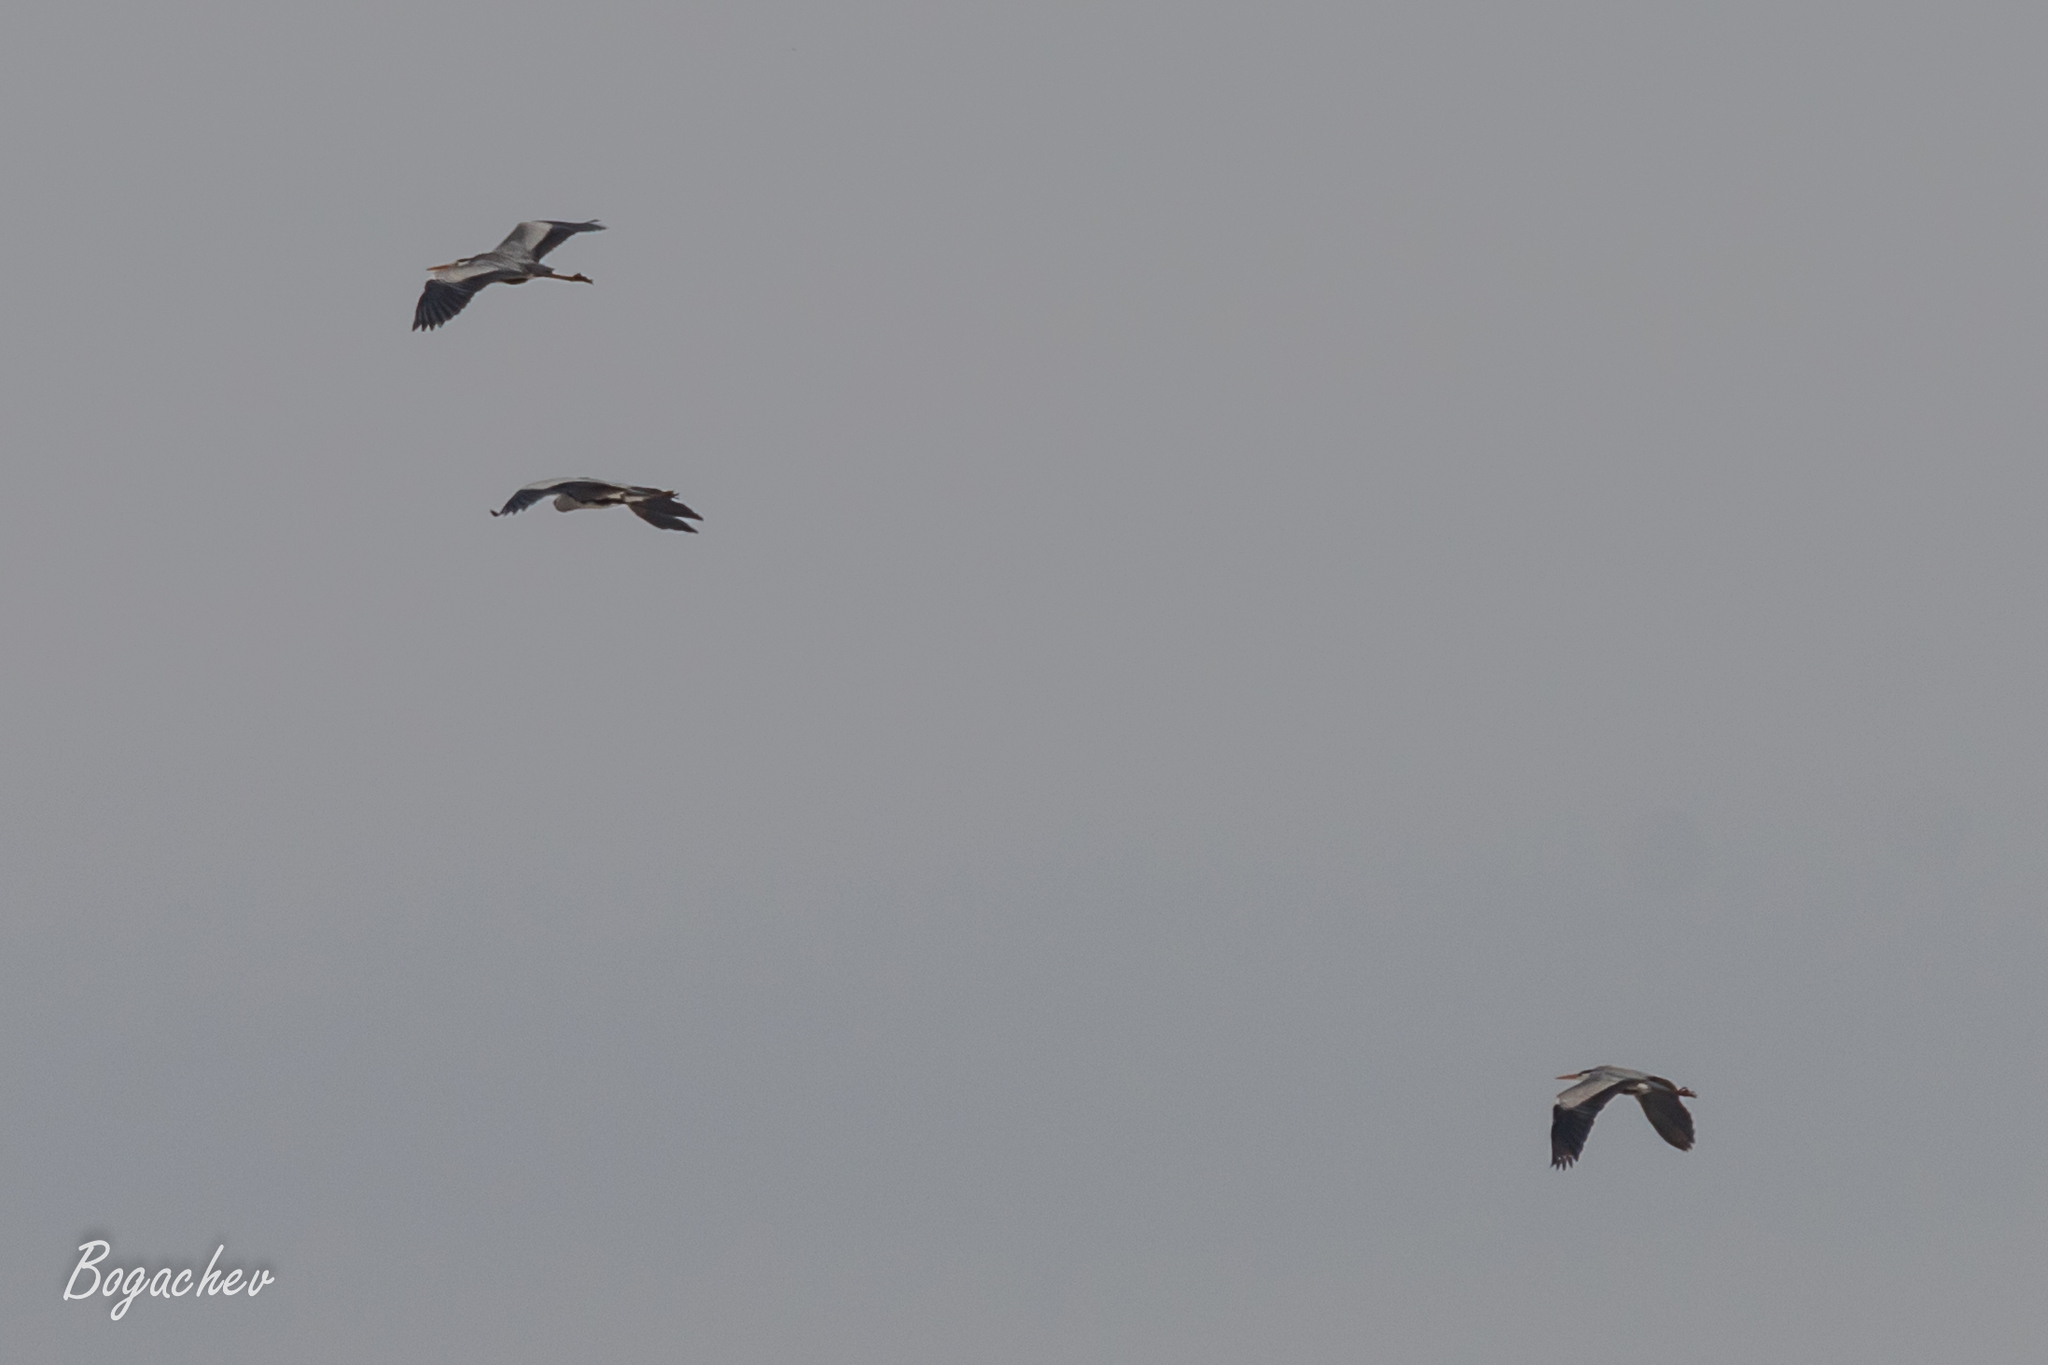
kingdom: Animalia
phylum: Chordata
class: Aves
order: Pelecaniformes
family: Ardeidae
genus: Ardea
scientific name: Ardea cinerea
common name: Grey heron
